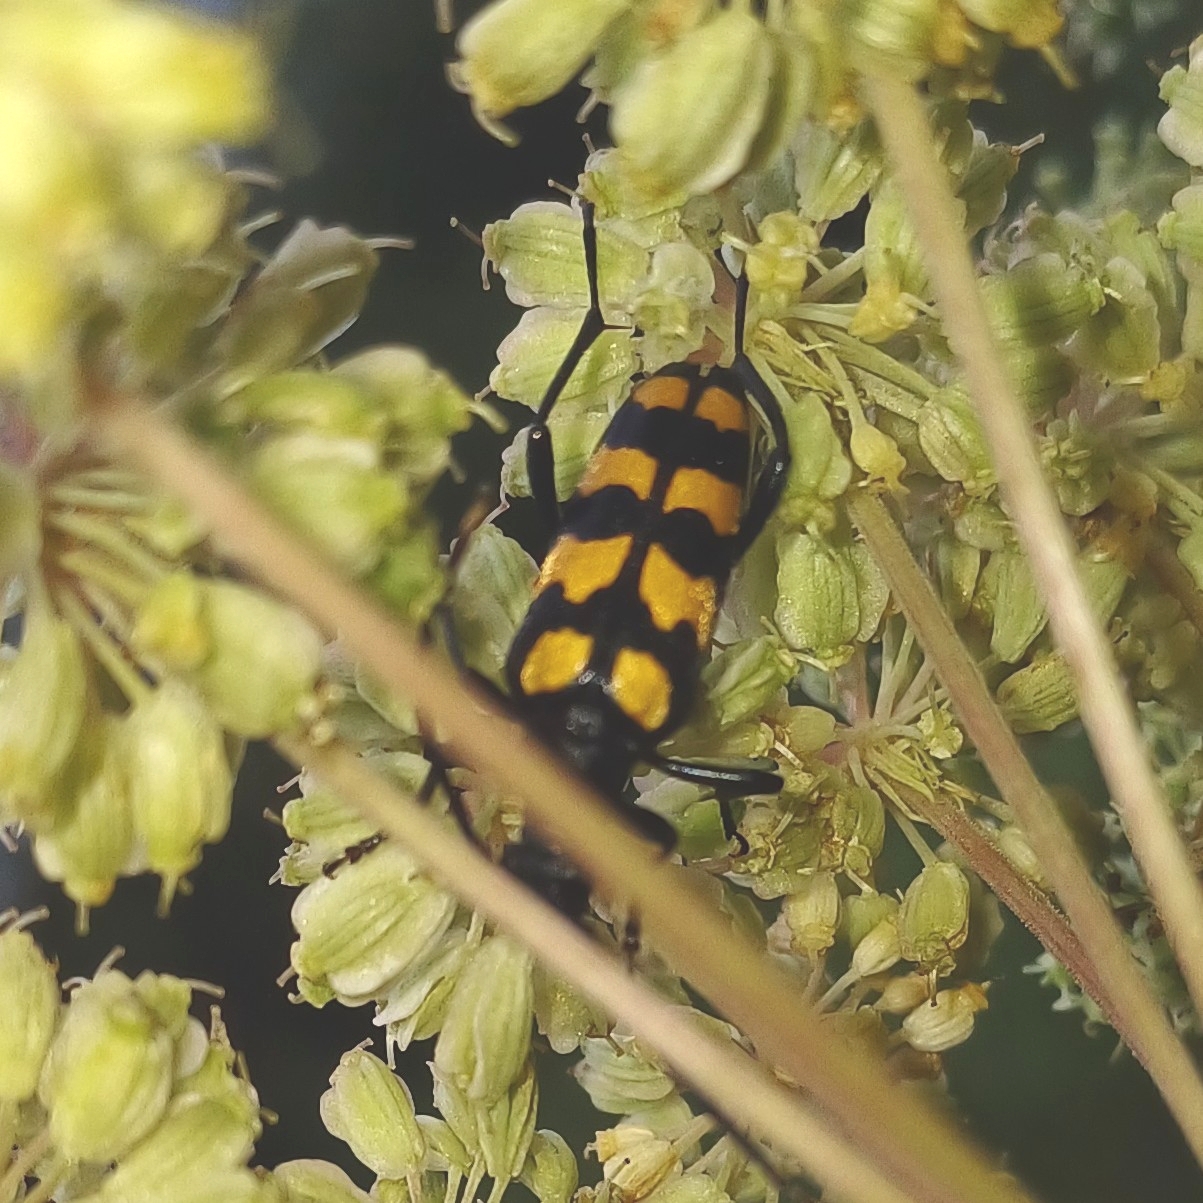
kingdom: Animalia
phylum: Arthropoda
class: Insecta
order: Coleoptera
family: Cerambycidae
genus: Leptura
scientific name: Leptura quadrifasciata
